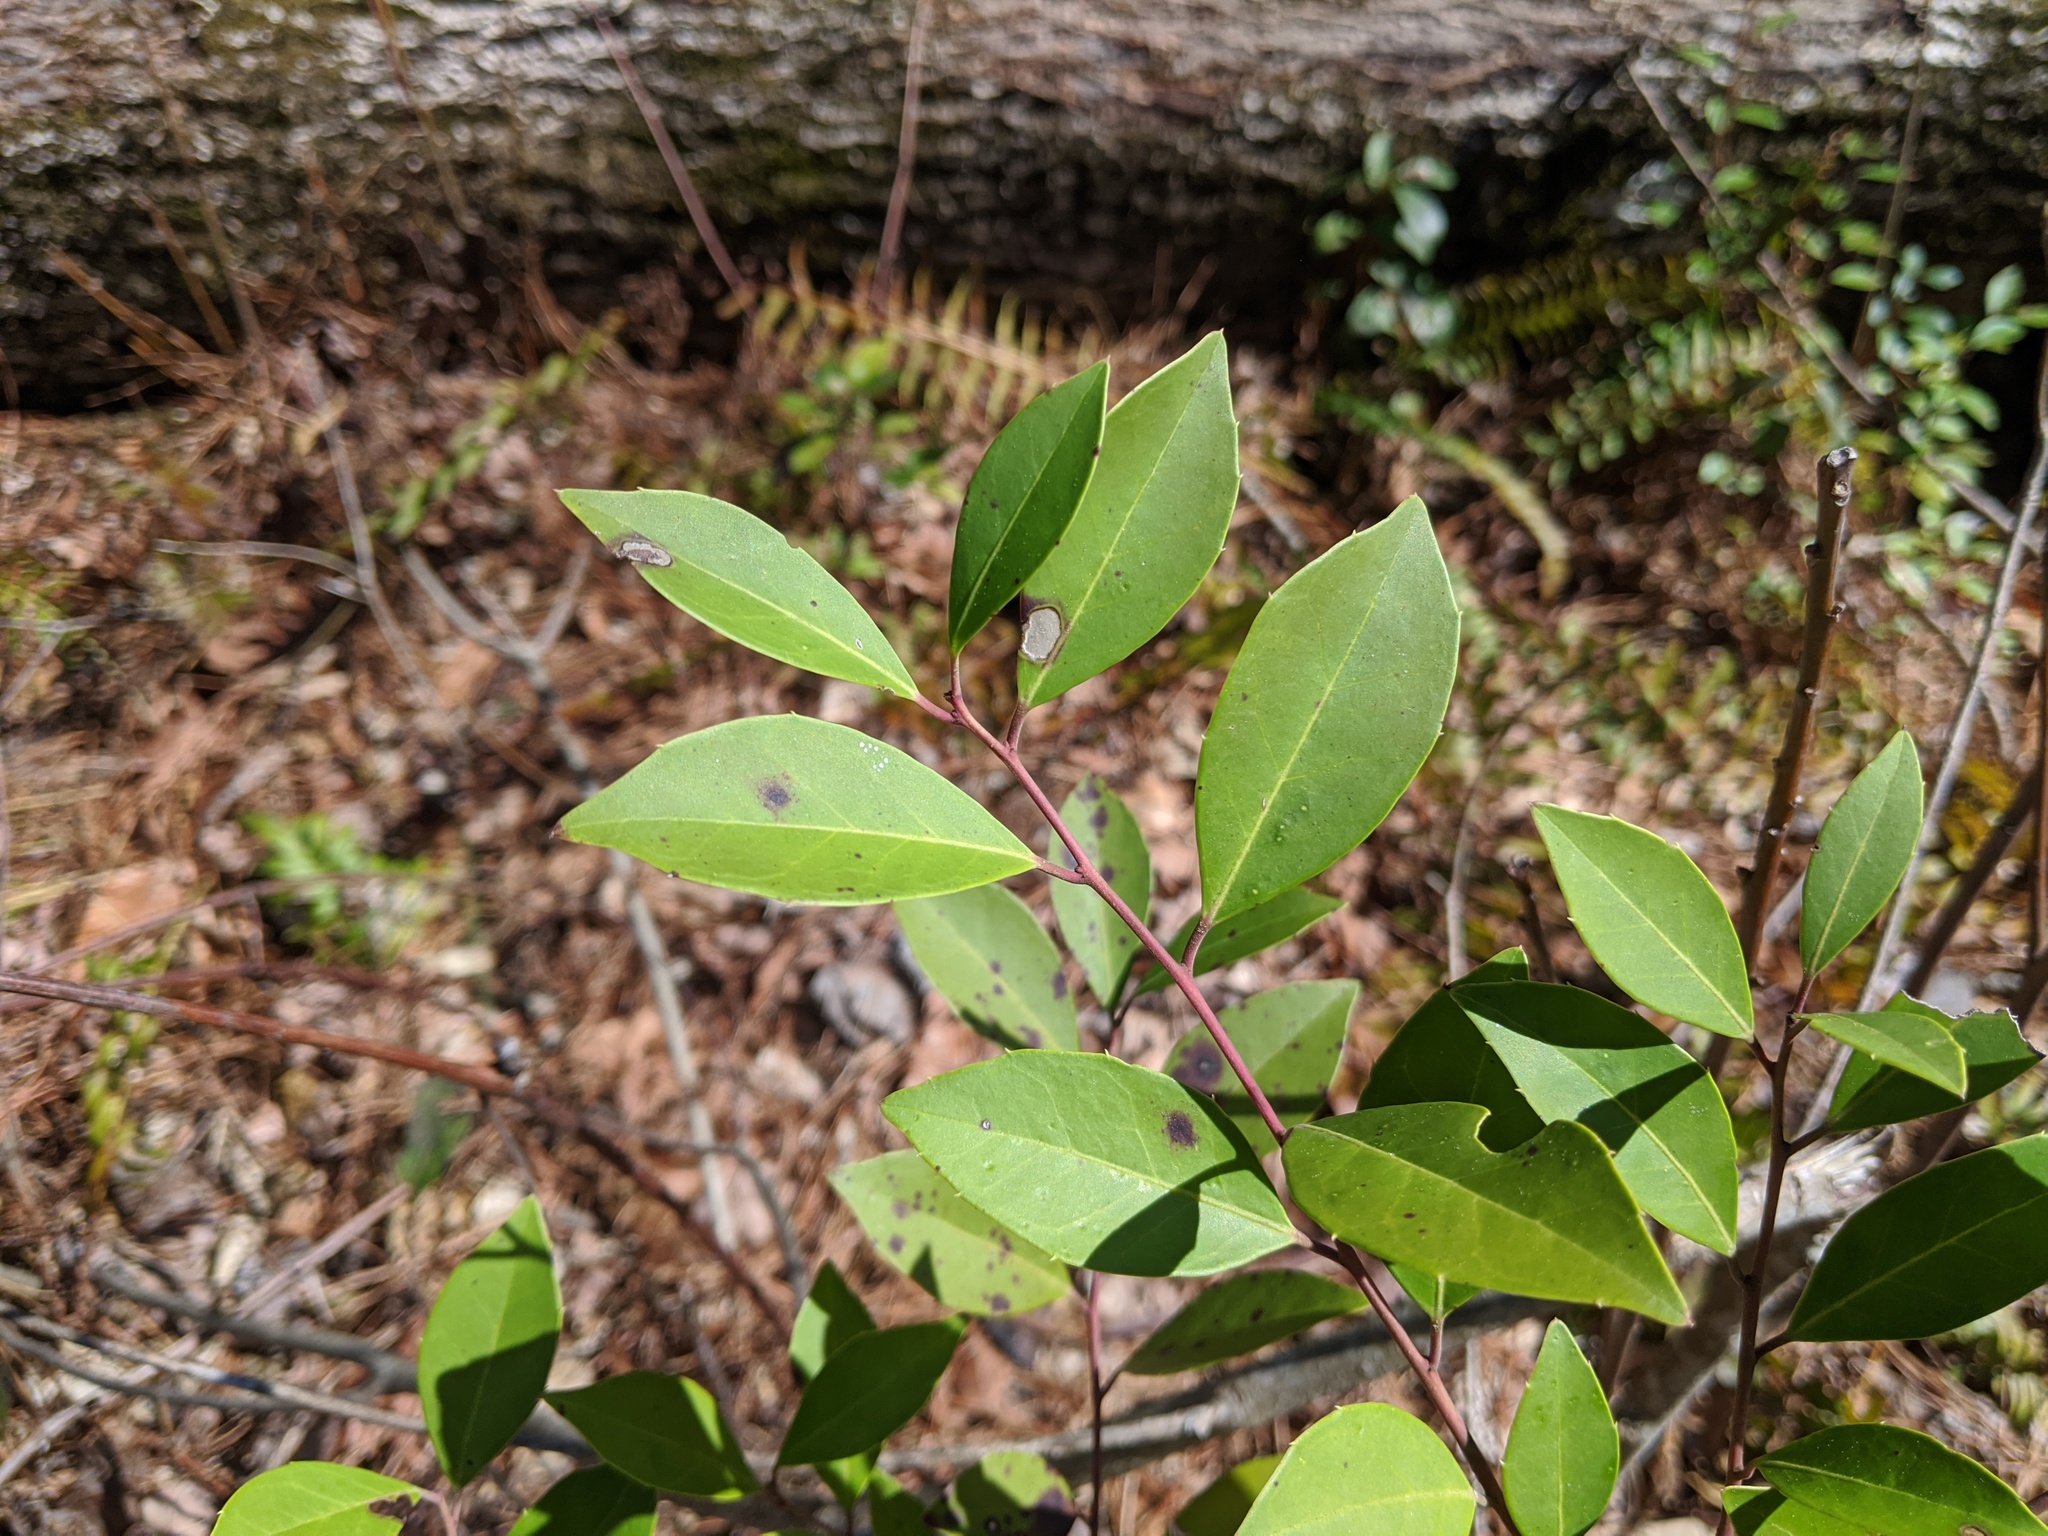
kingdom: Plantae
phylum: Tracheophyta
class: Magnoliopsida
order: Aquifoliales
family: Aquifoliaceae
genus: Ilex
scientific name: Ilex coriacea
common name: Sweet gallberry
